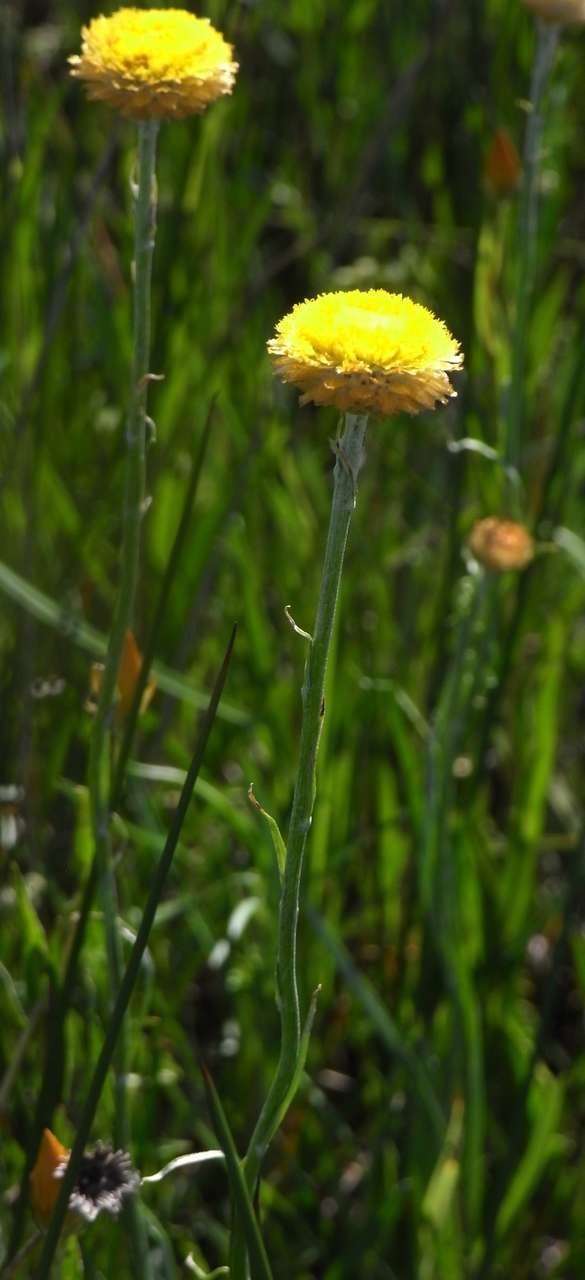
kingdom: Plantae
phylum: Tracheophyta
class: Magnoliopsida
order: Asterales
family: Asteraceae
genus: Coronidium
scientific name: Coronidium gunnianum
